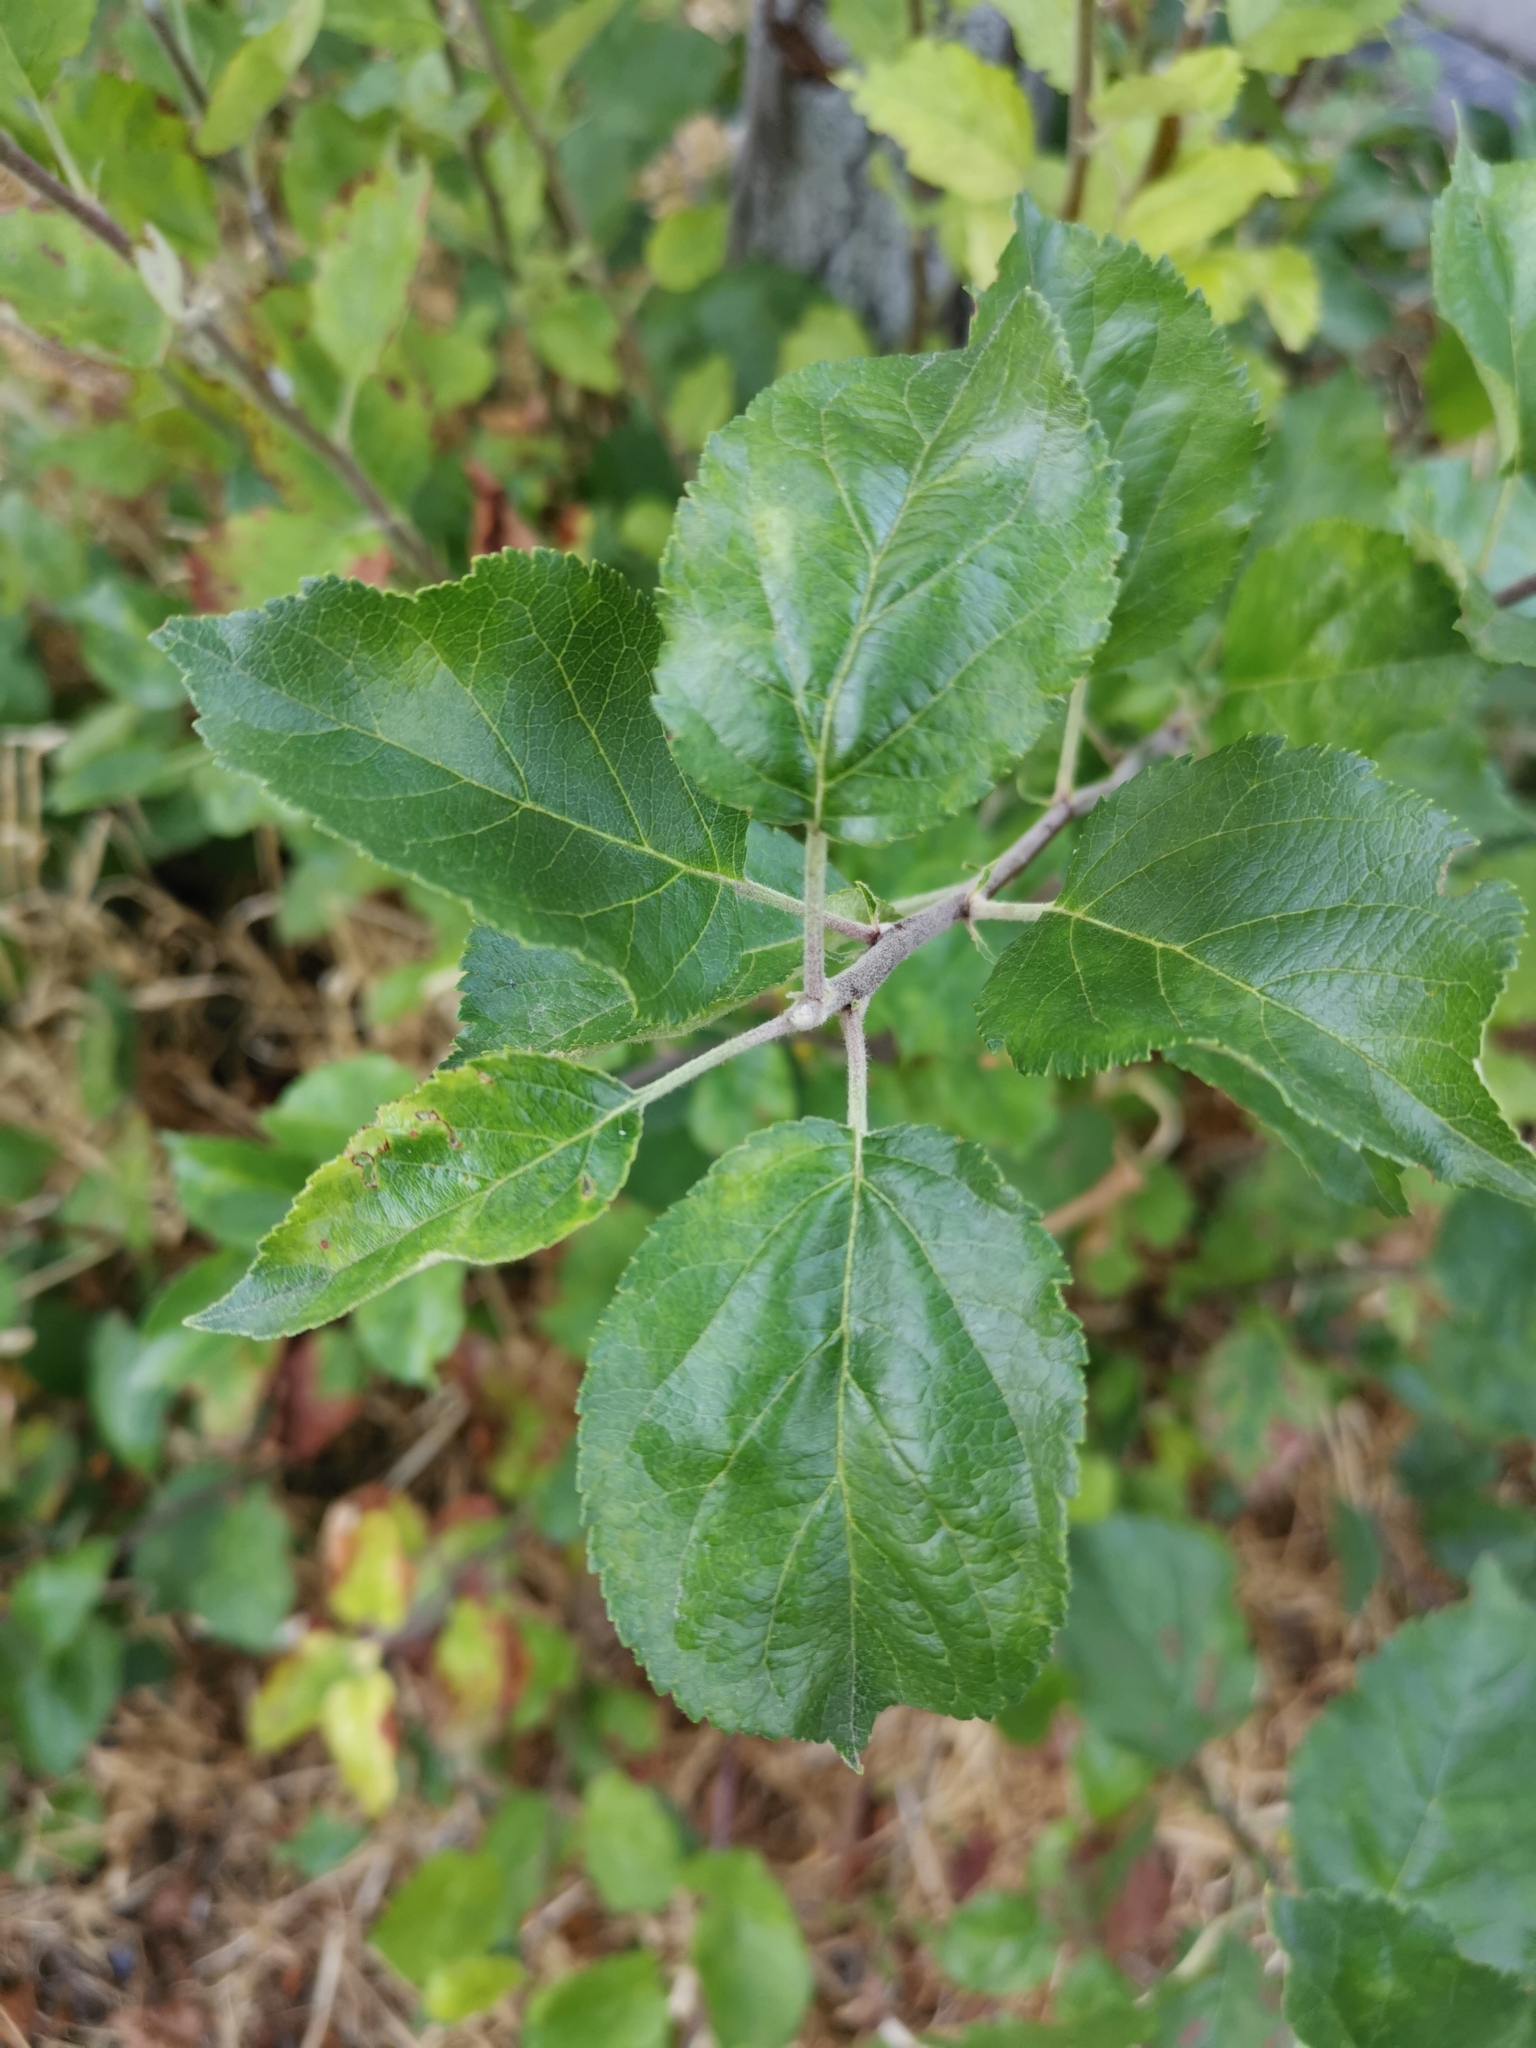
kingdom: Animalia
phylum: Arthropoda
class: Insecta
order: Hemiptera
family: Aphididae
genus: Aphis
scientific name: Aphis
